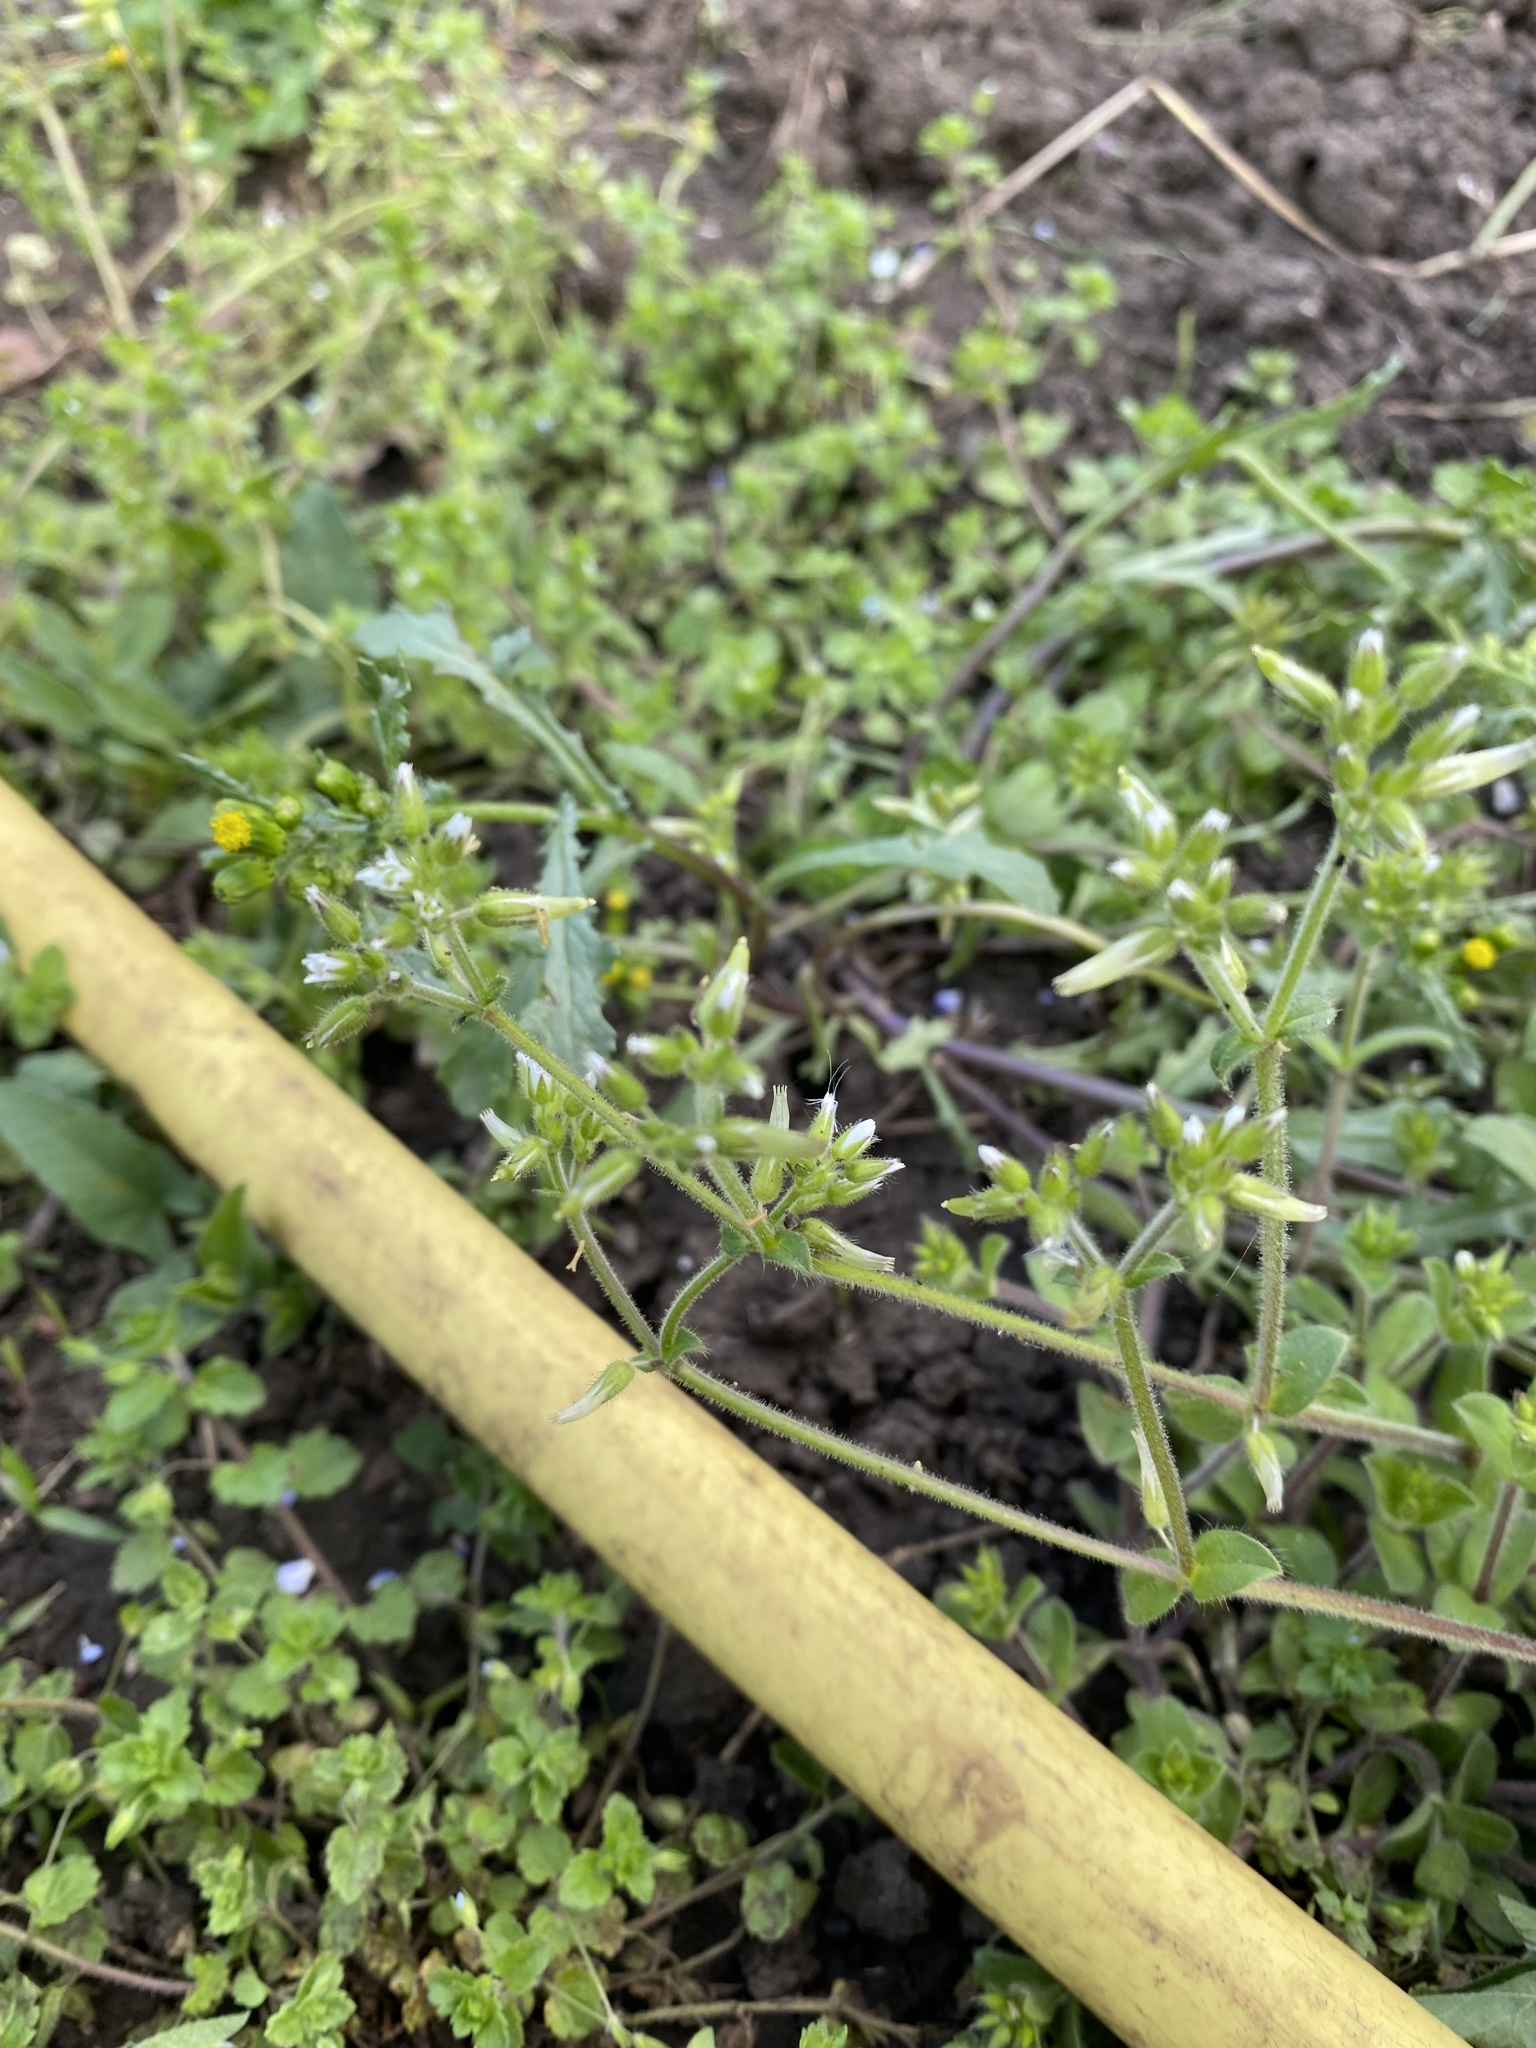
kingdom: Plantae
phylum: Tracheophyta
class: Magnoliopsida
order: Caryophyllales
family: Caryophyllaceae
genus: Cerastium
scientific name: Cerastium glomeratum
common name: Sticky chickweed
